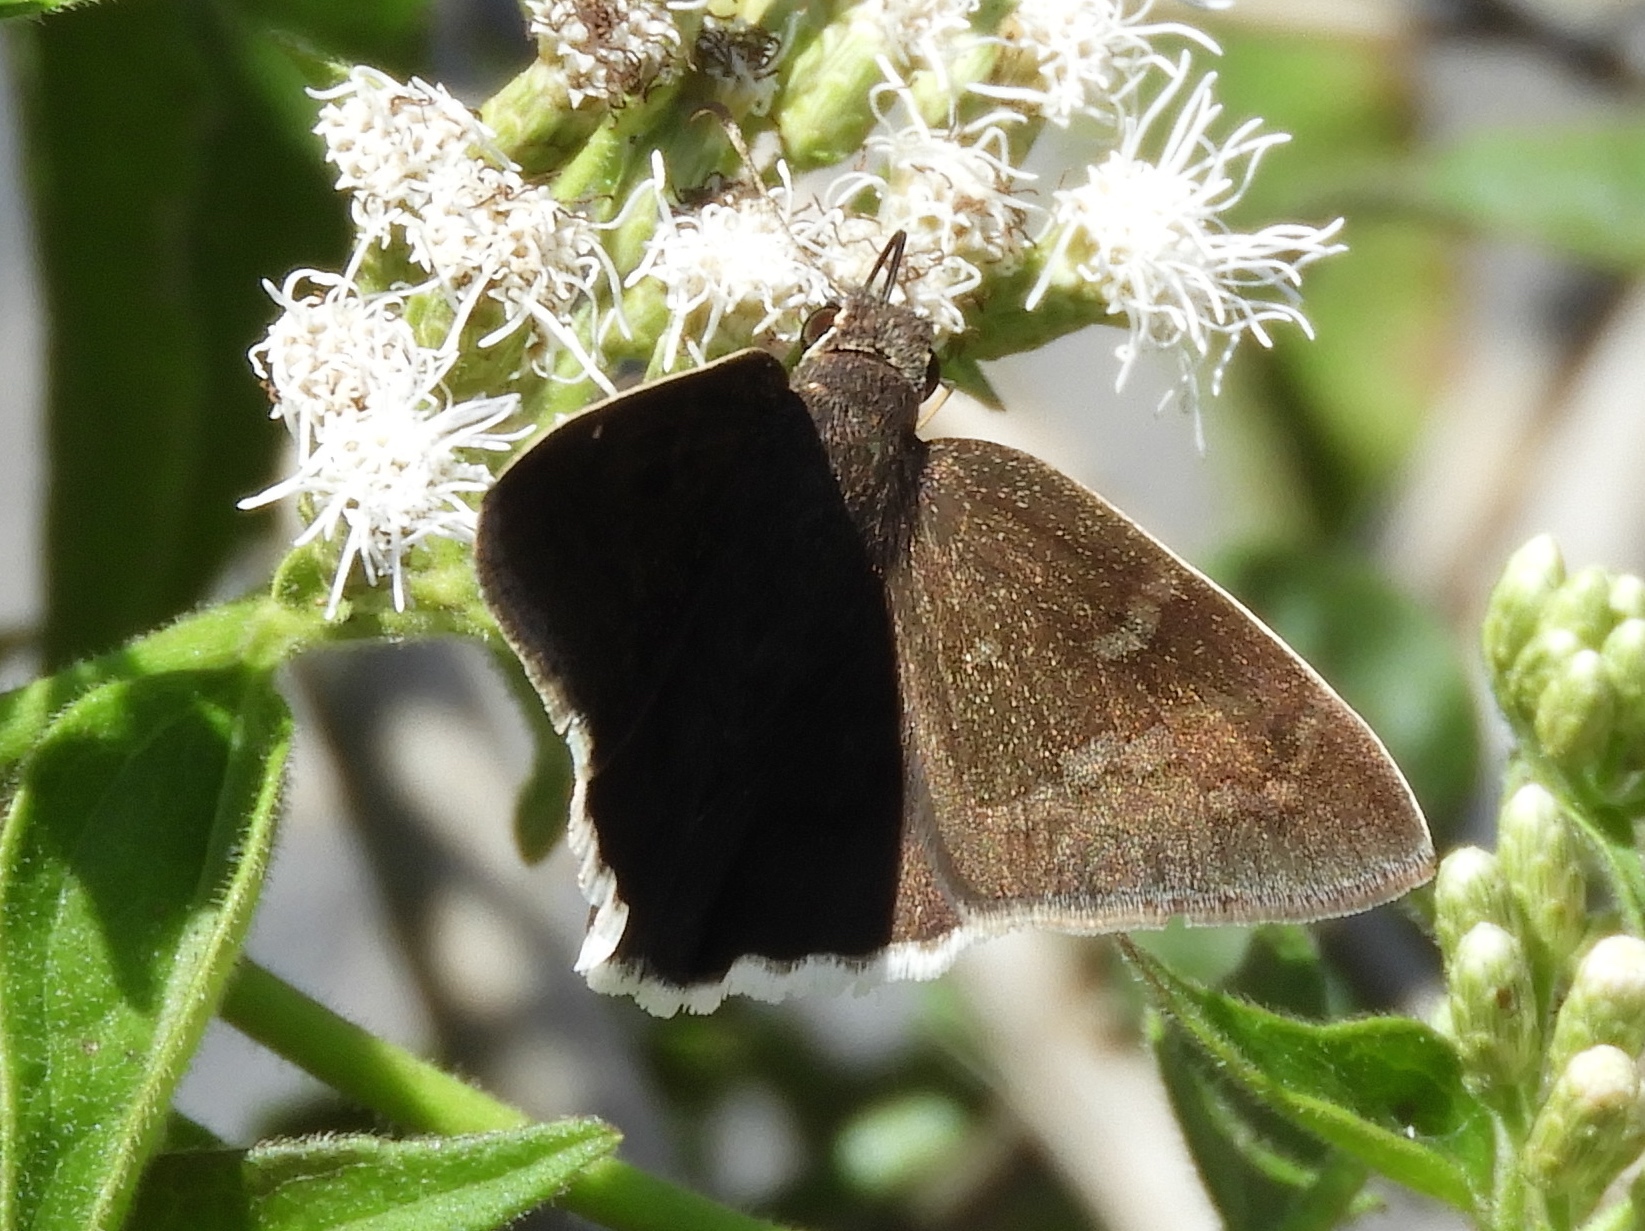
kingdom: Animalia
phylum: Arthropoda
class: Insecta
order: Lepidoptera
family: Hesperiidae
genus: Achalarus
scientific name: Achalarus Murgaria jalapus
